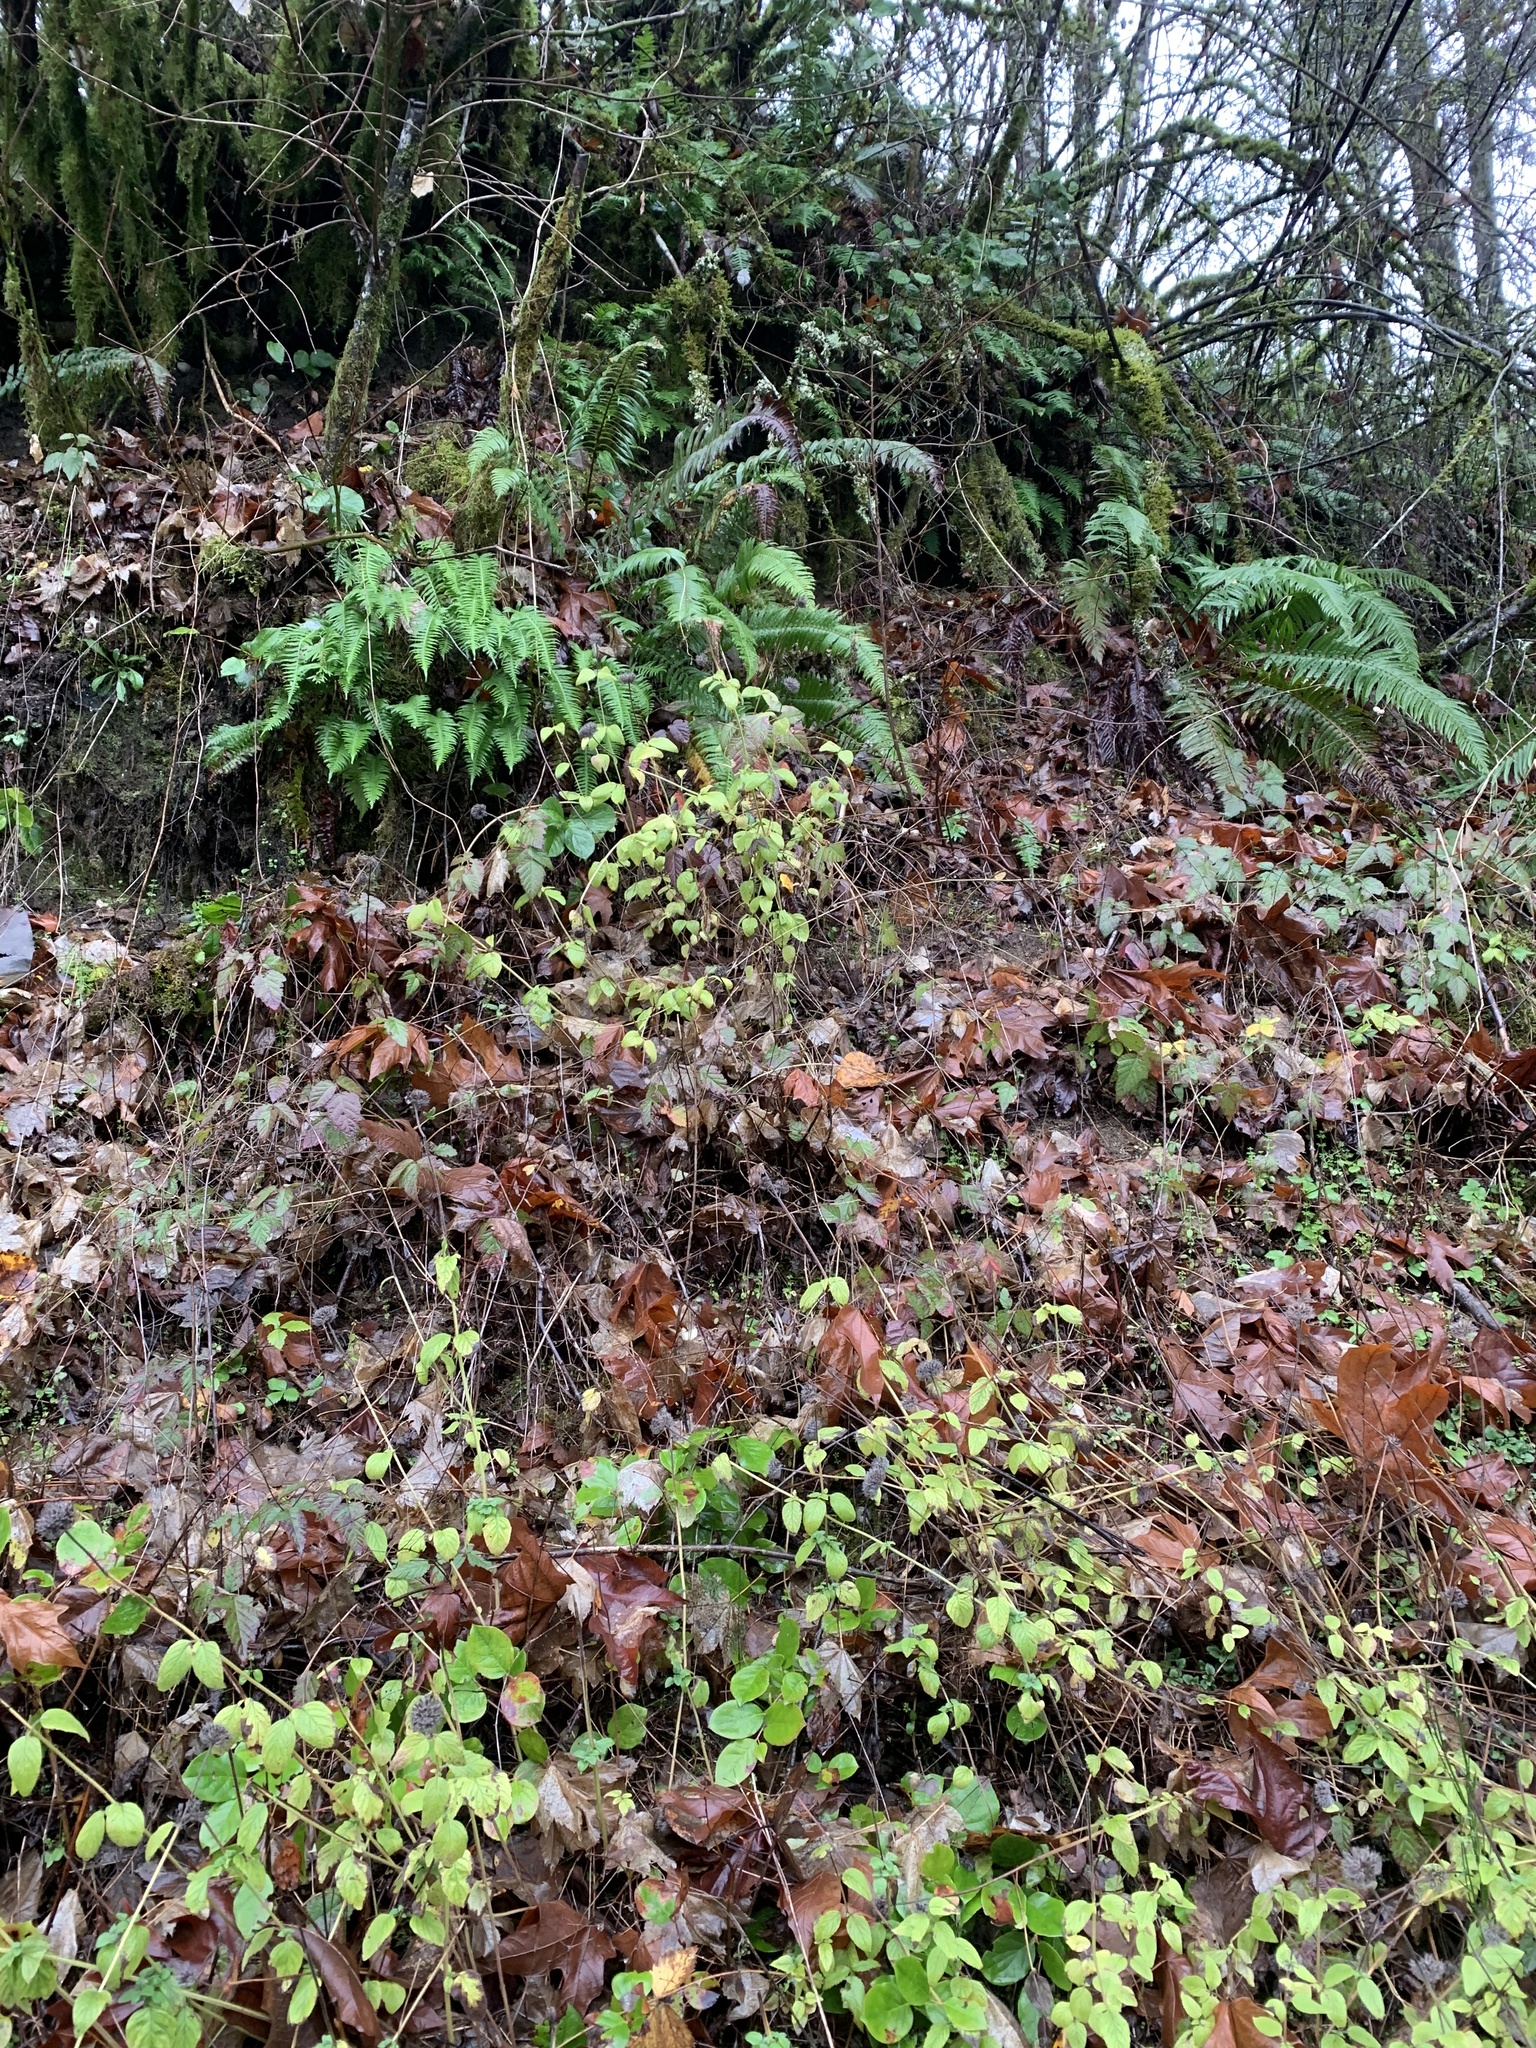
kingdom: Plantae
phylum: Tracheophyta
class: Magnoliopsida
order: Lamiales
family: Lamiaceae
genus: Clinopodium
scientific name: Clinopodium vulgare
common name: Wild basil
